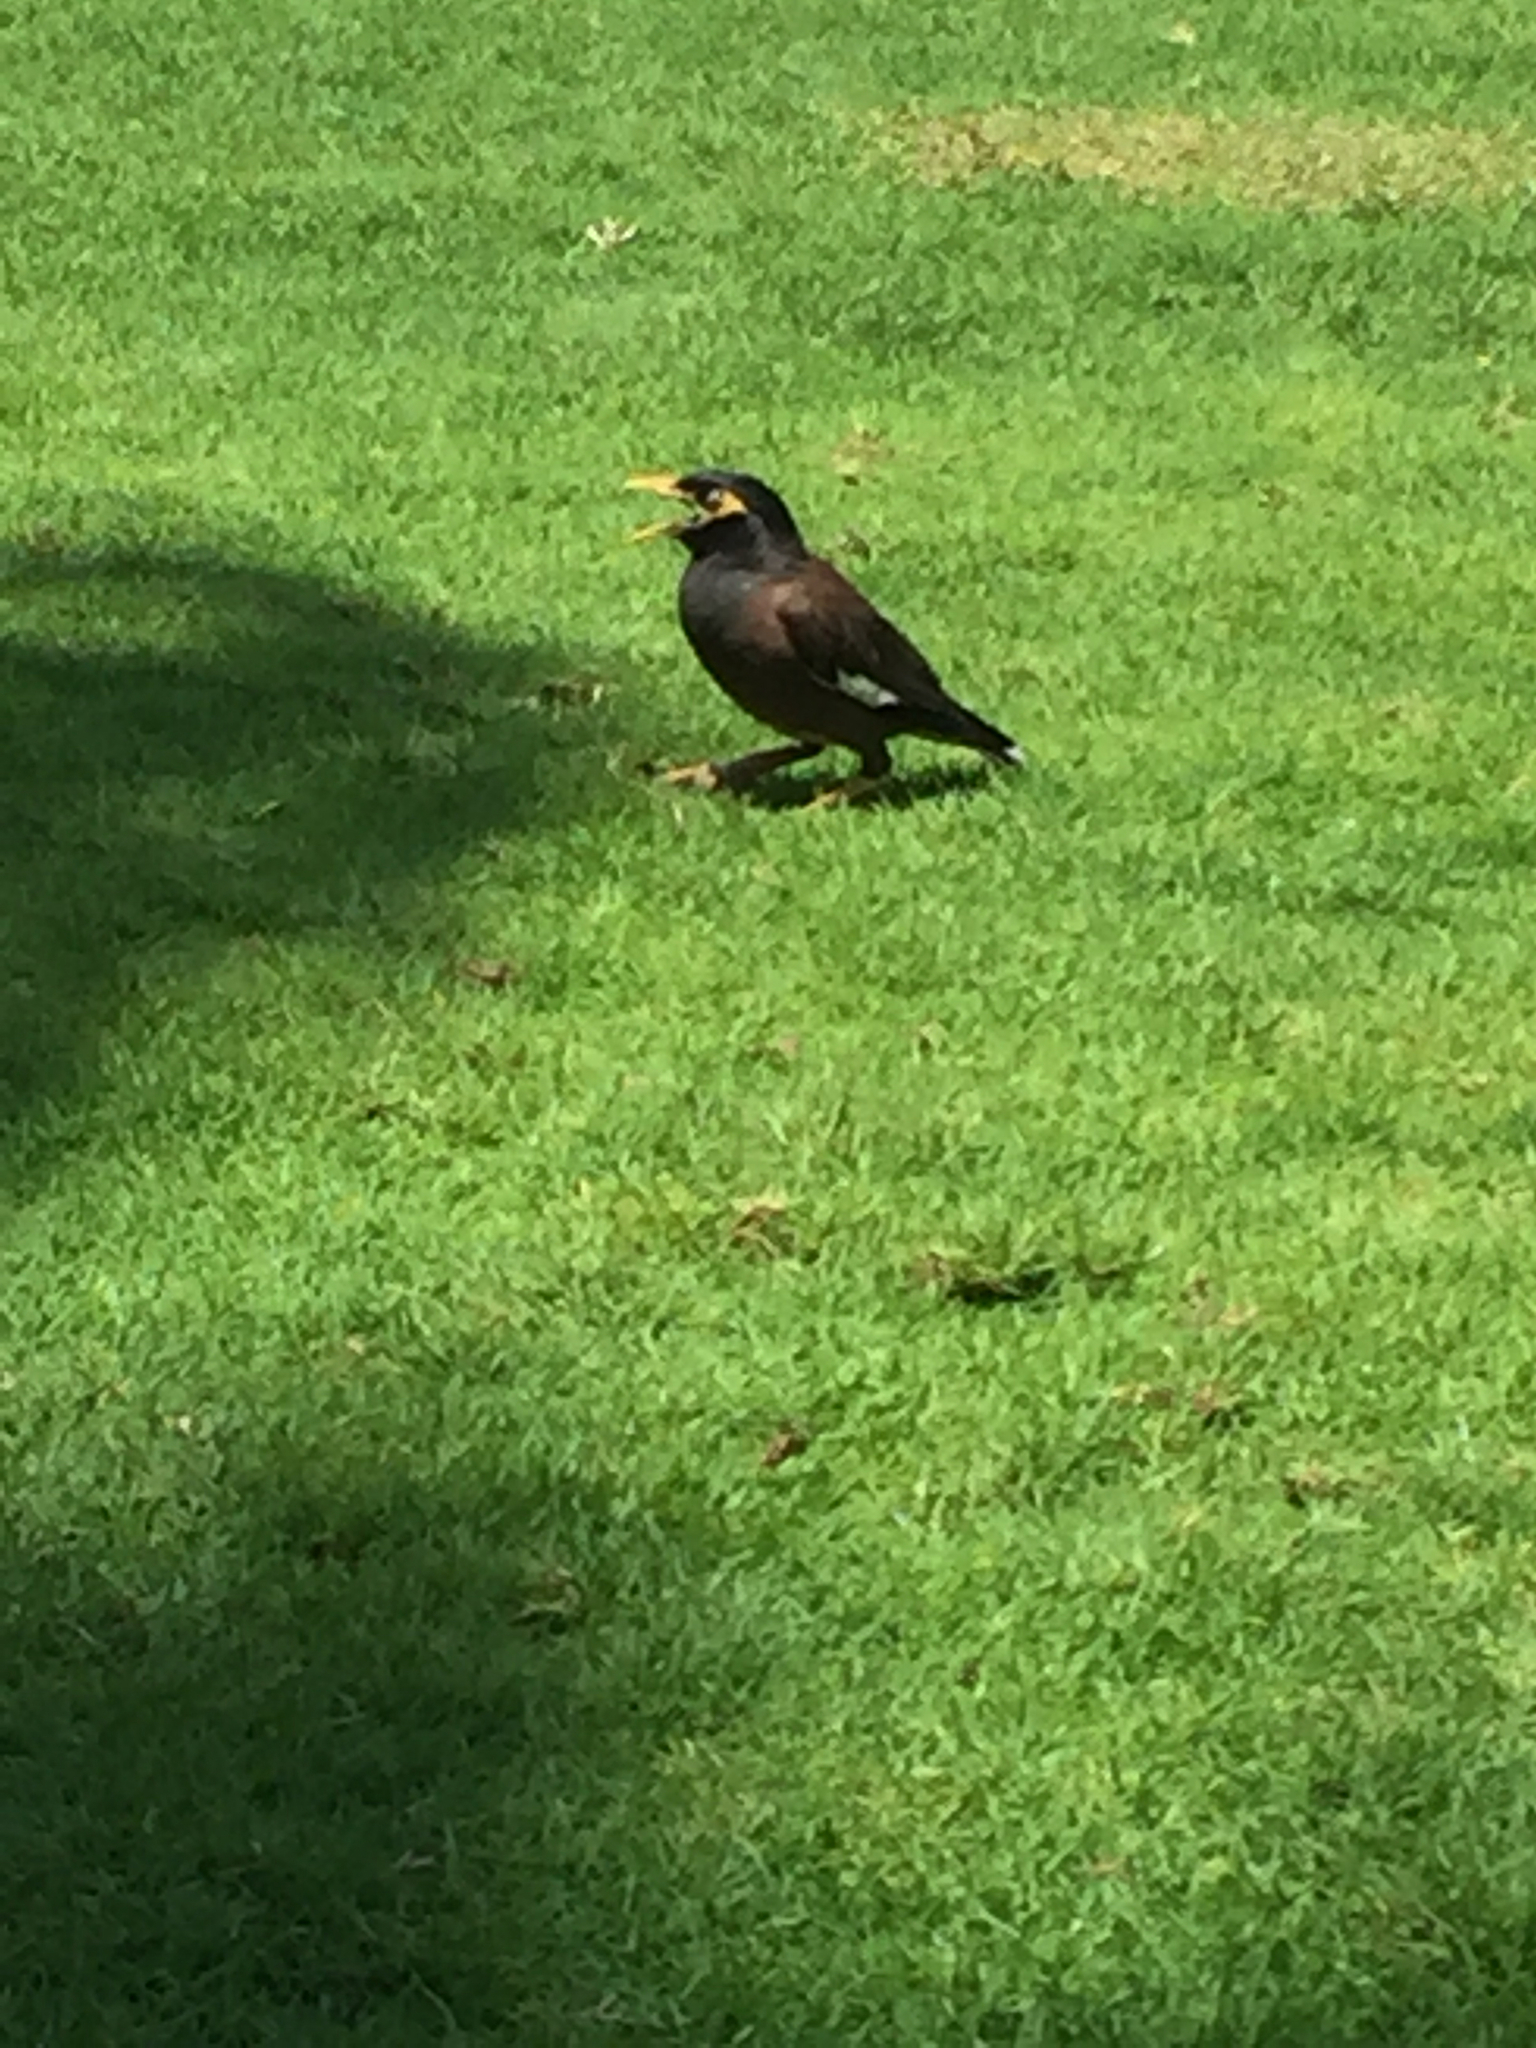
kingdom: Animalia
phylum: Chordata
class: Aves
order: Passeriformes
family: Sturnidae
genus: Acridotheres
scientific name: Acridotheres tristis
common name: Common myna
